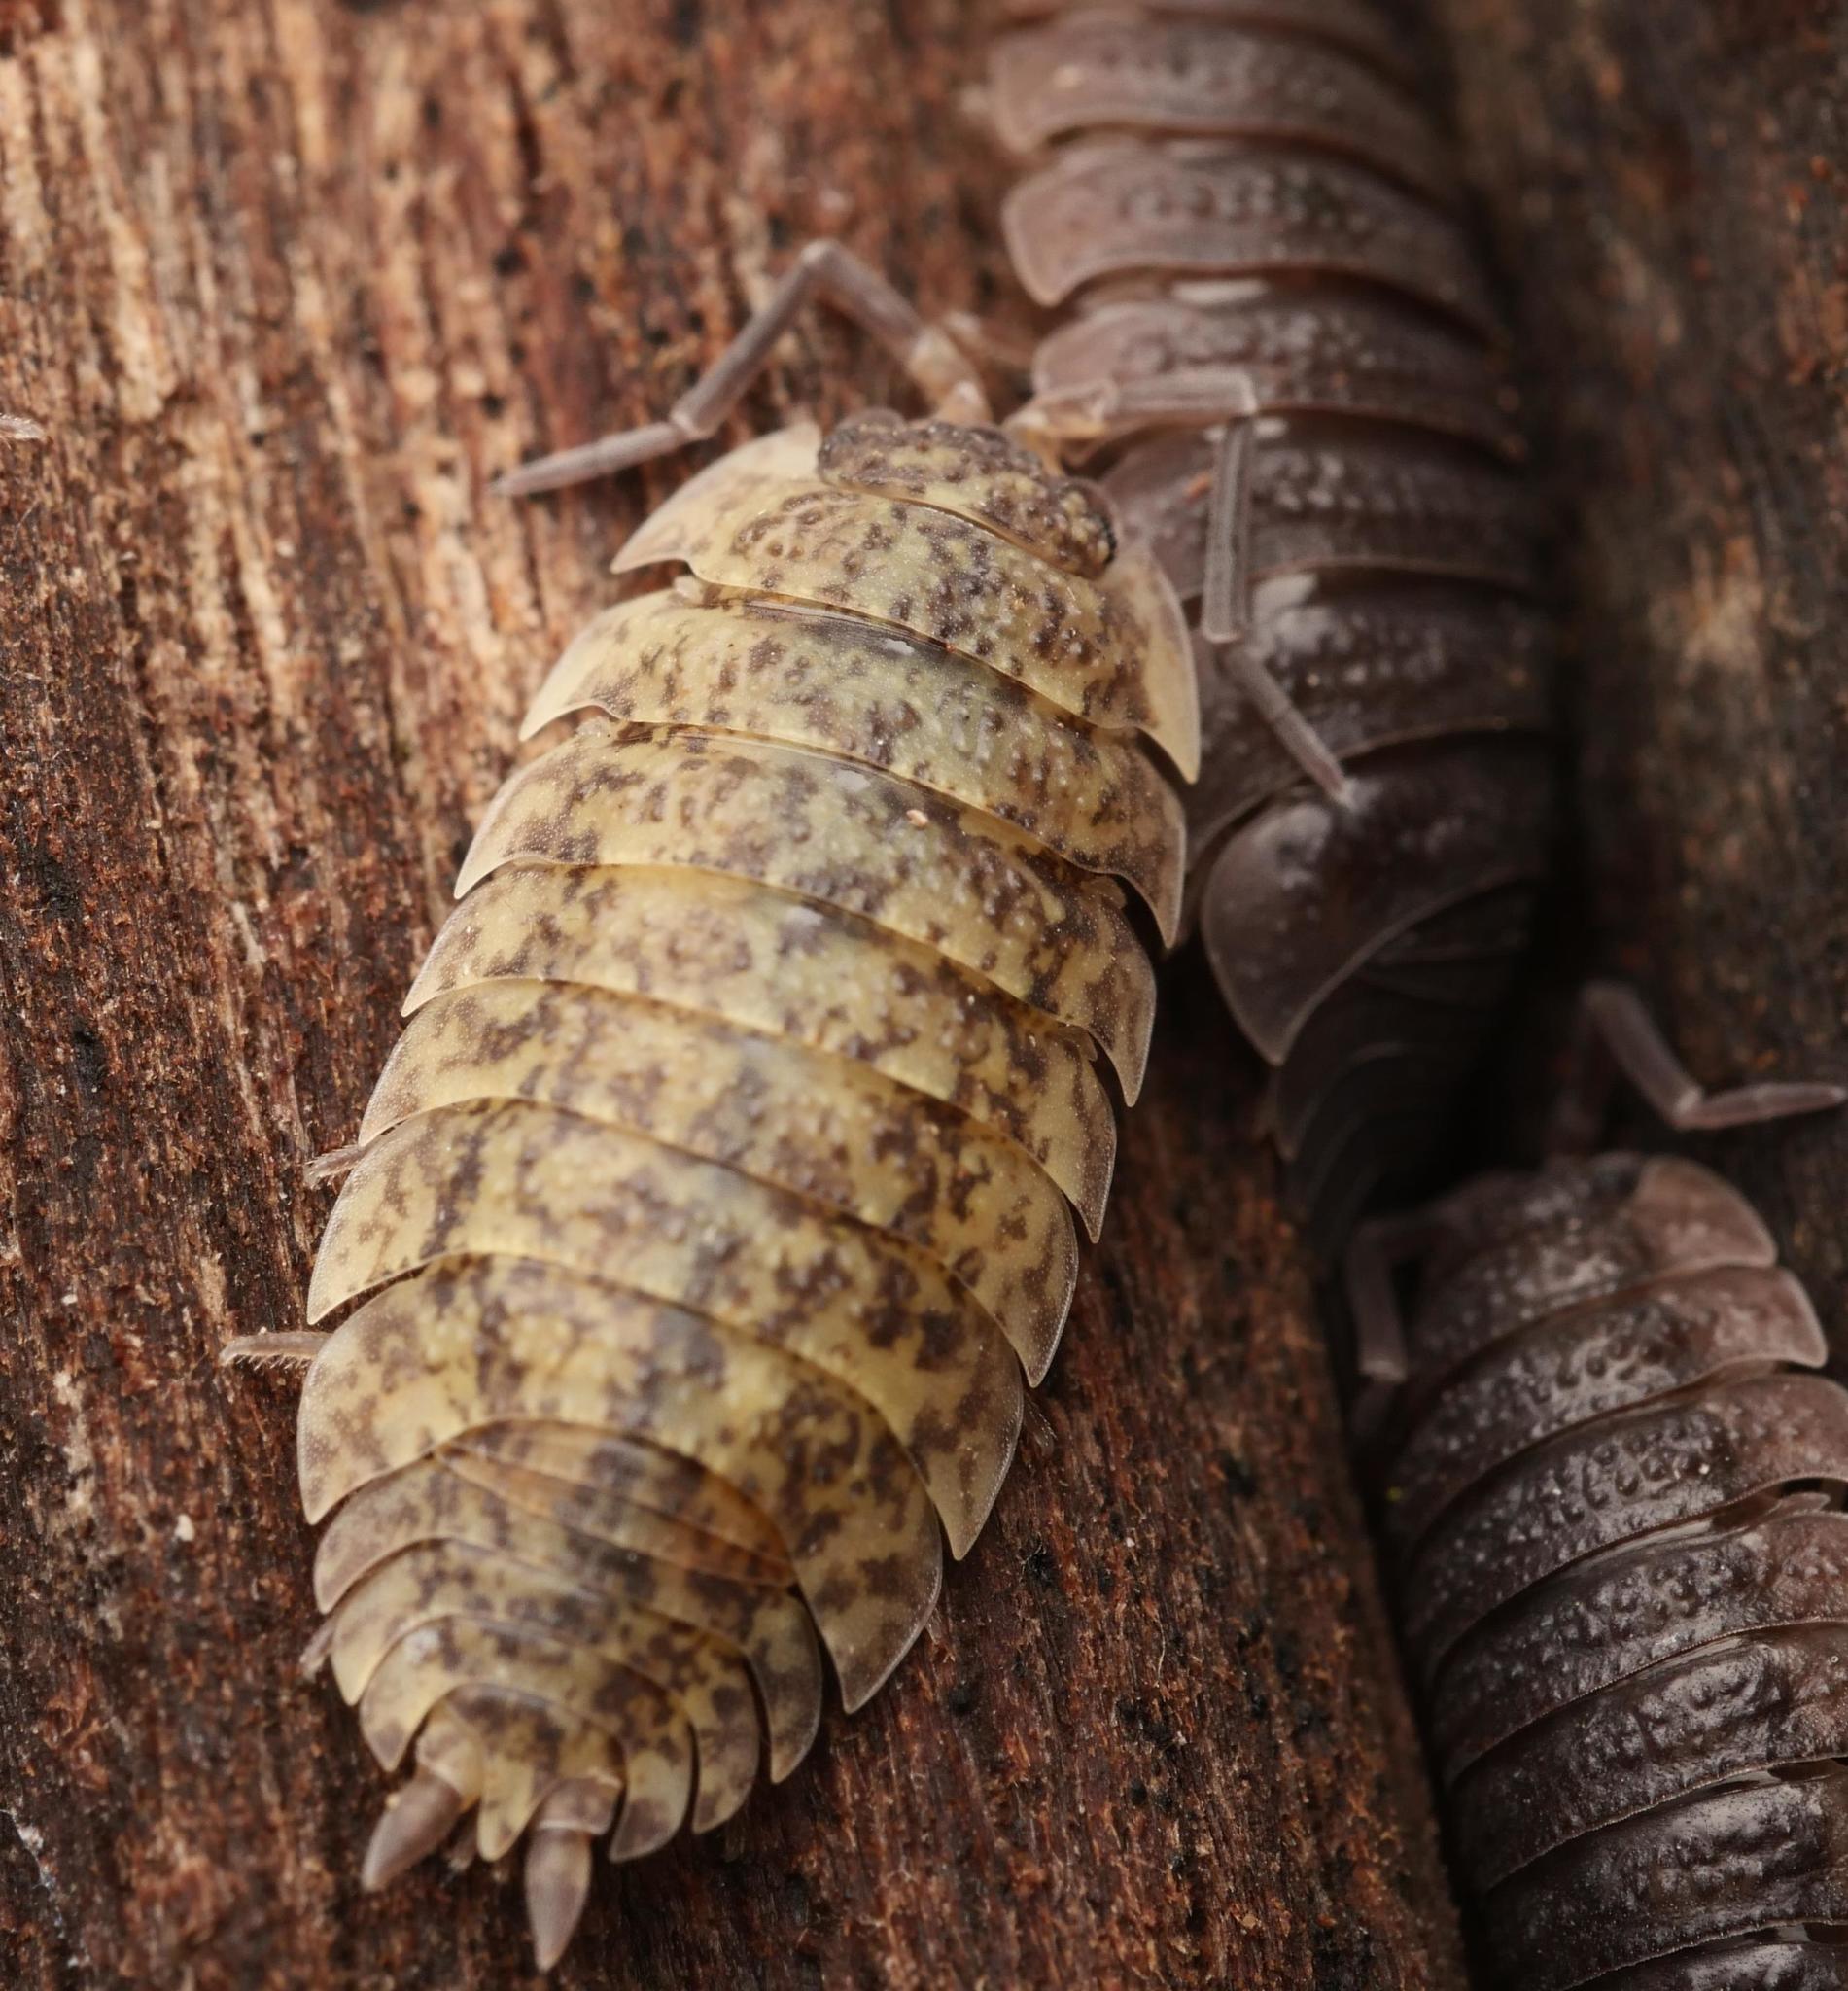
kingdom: Animalia
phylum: Arthropoda
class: Malacostraca
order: Isopoda
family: Porcellionidae
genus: Porcellio
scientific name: Porcellio scaber
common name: Common rough woodlouse
